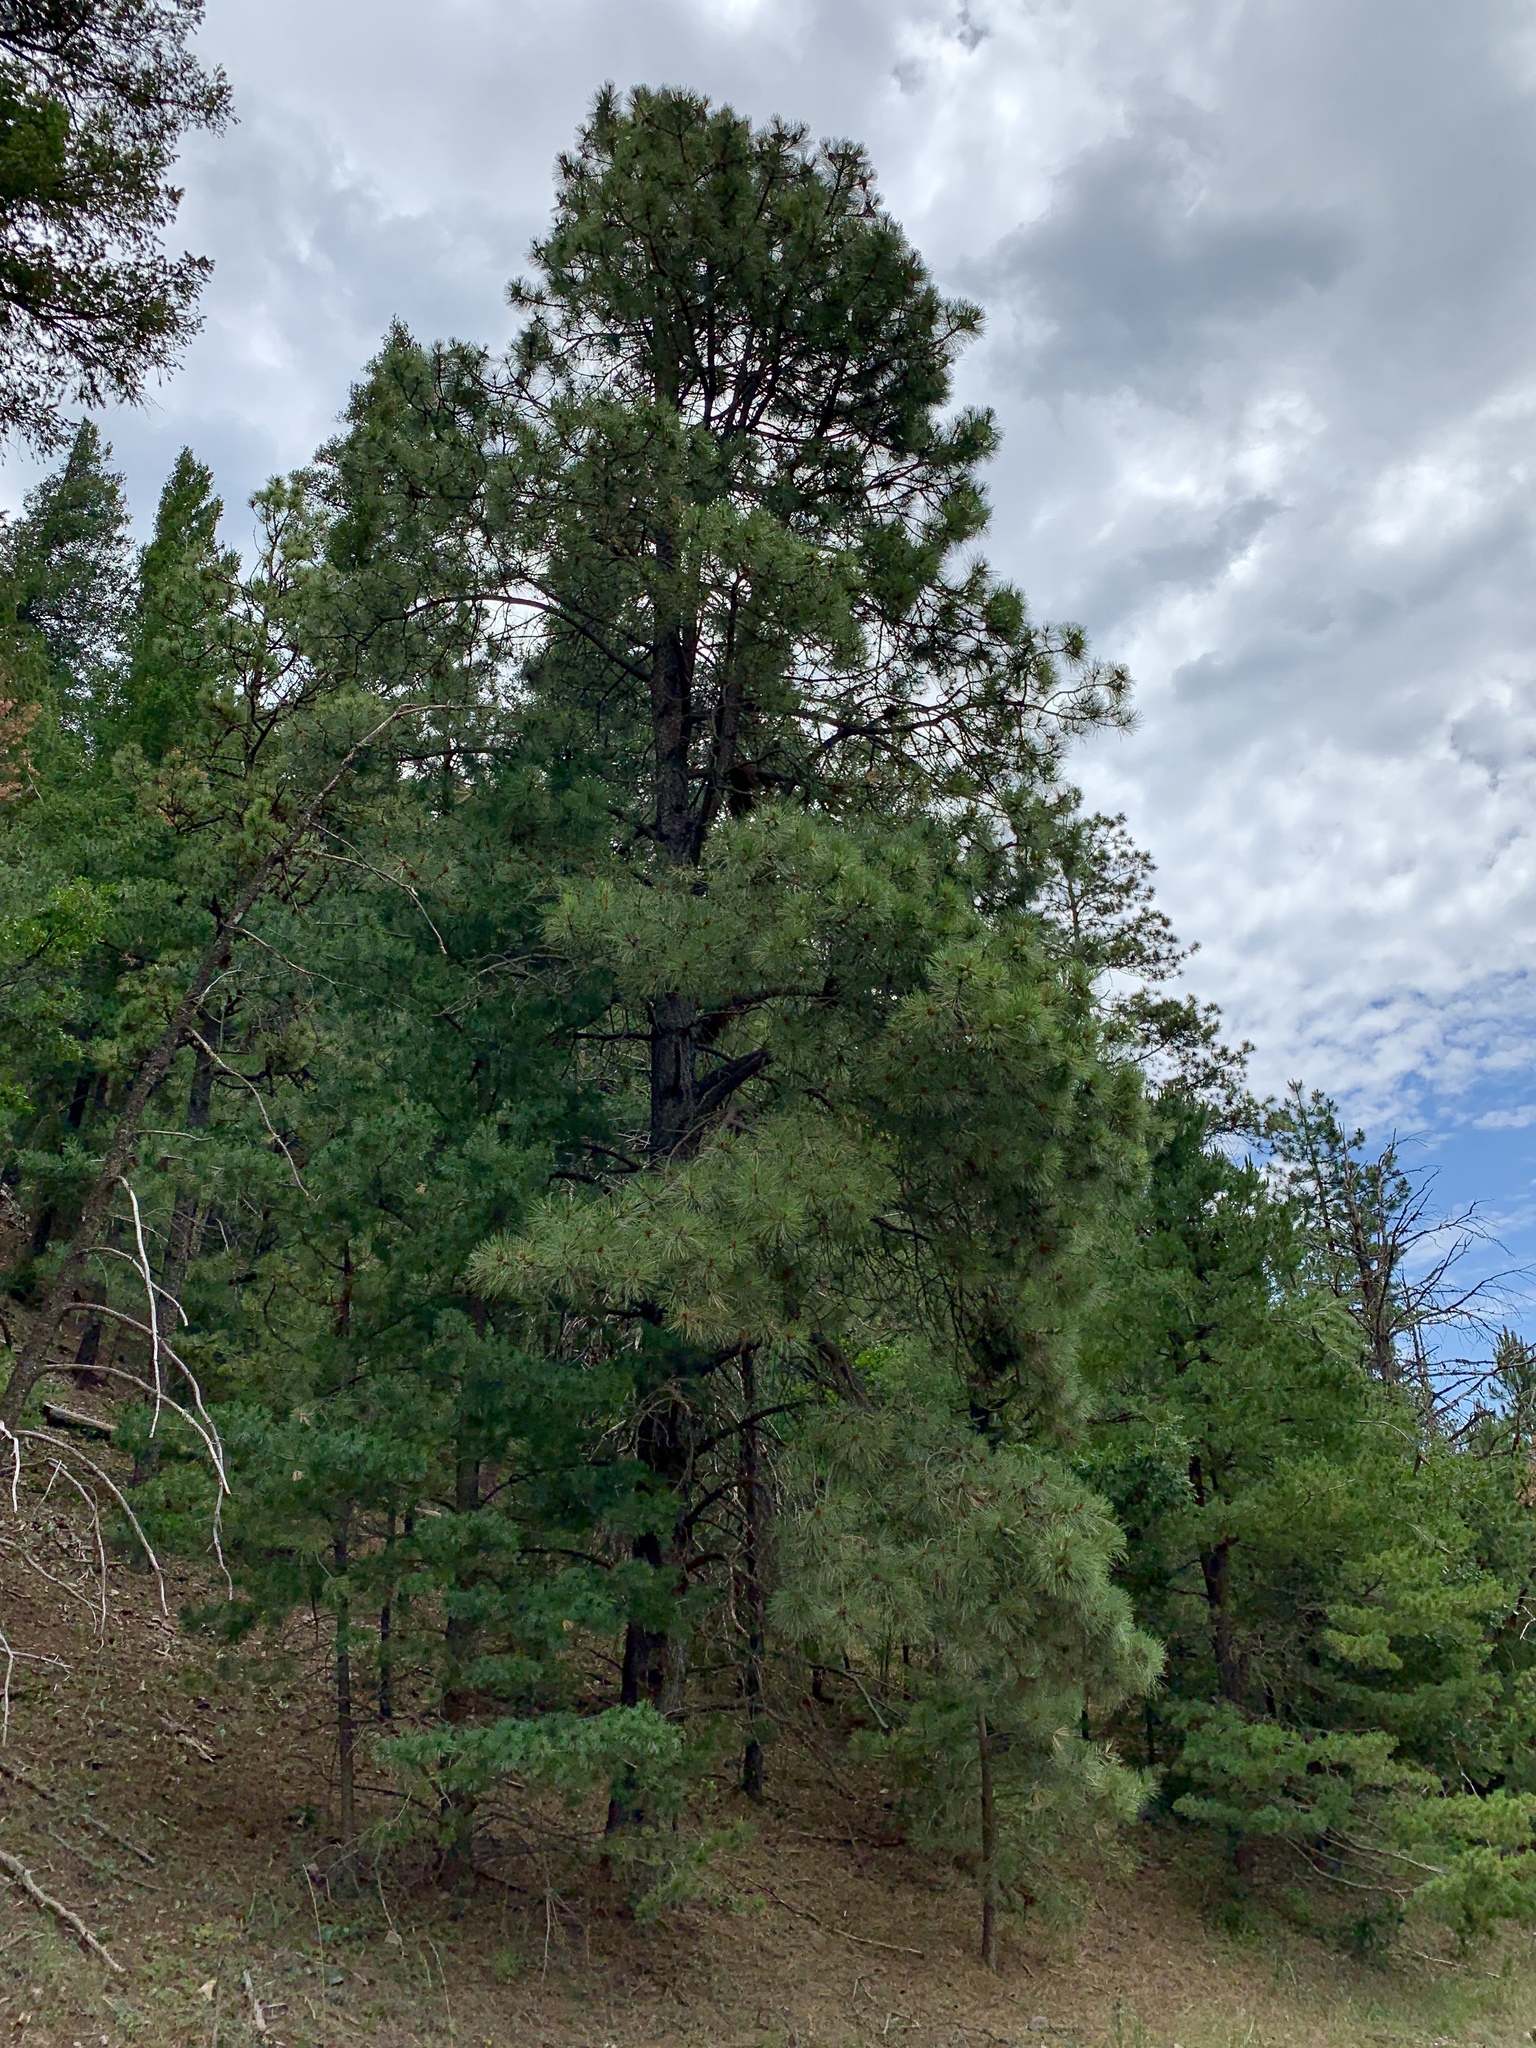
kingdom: Plantae
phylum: Tracheophyta
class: Pinopsida
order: Pinales
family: Pinaceae
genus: Pinus
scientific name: Pinus ponderosa
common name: Western yellow-pine
